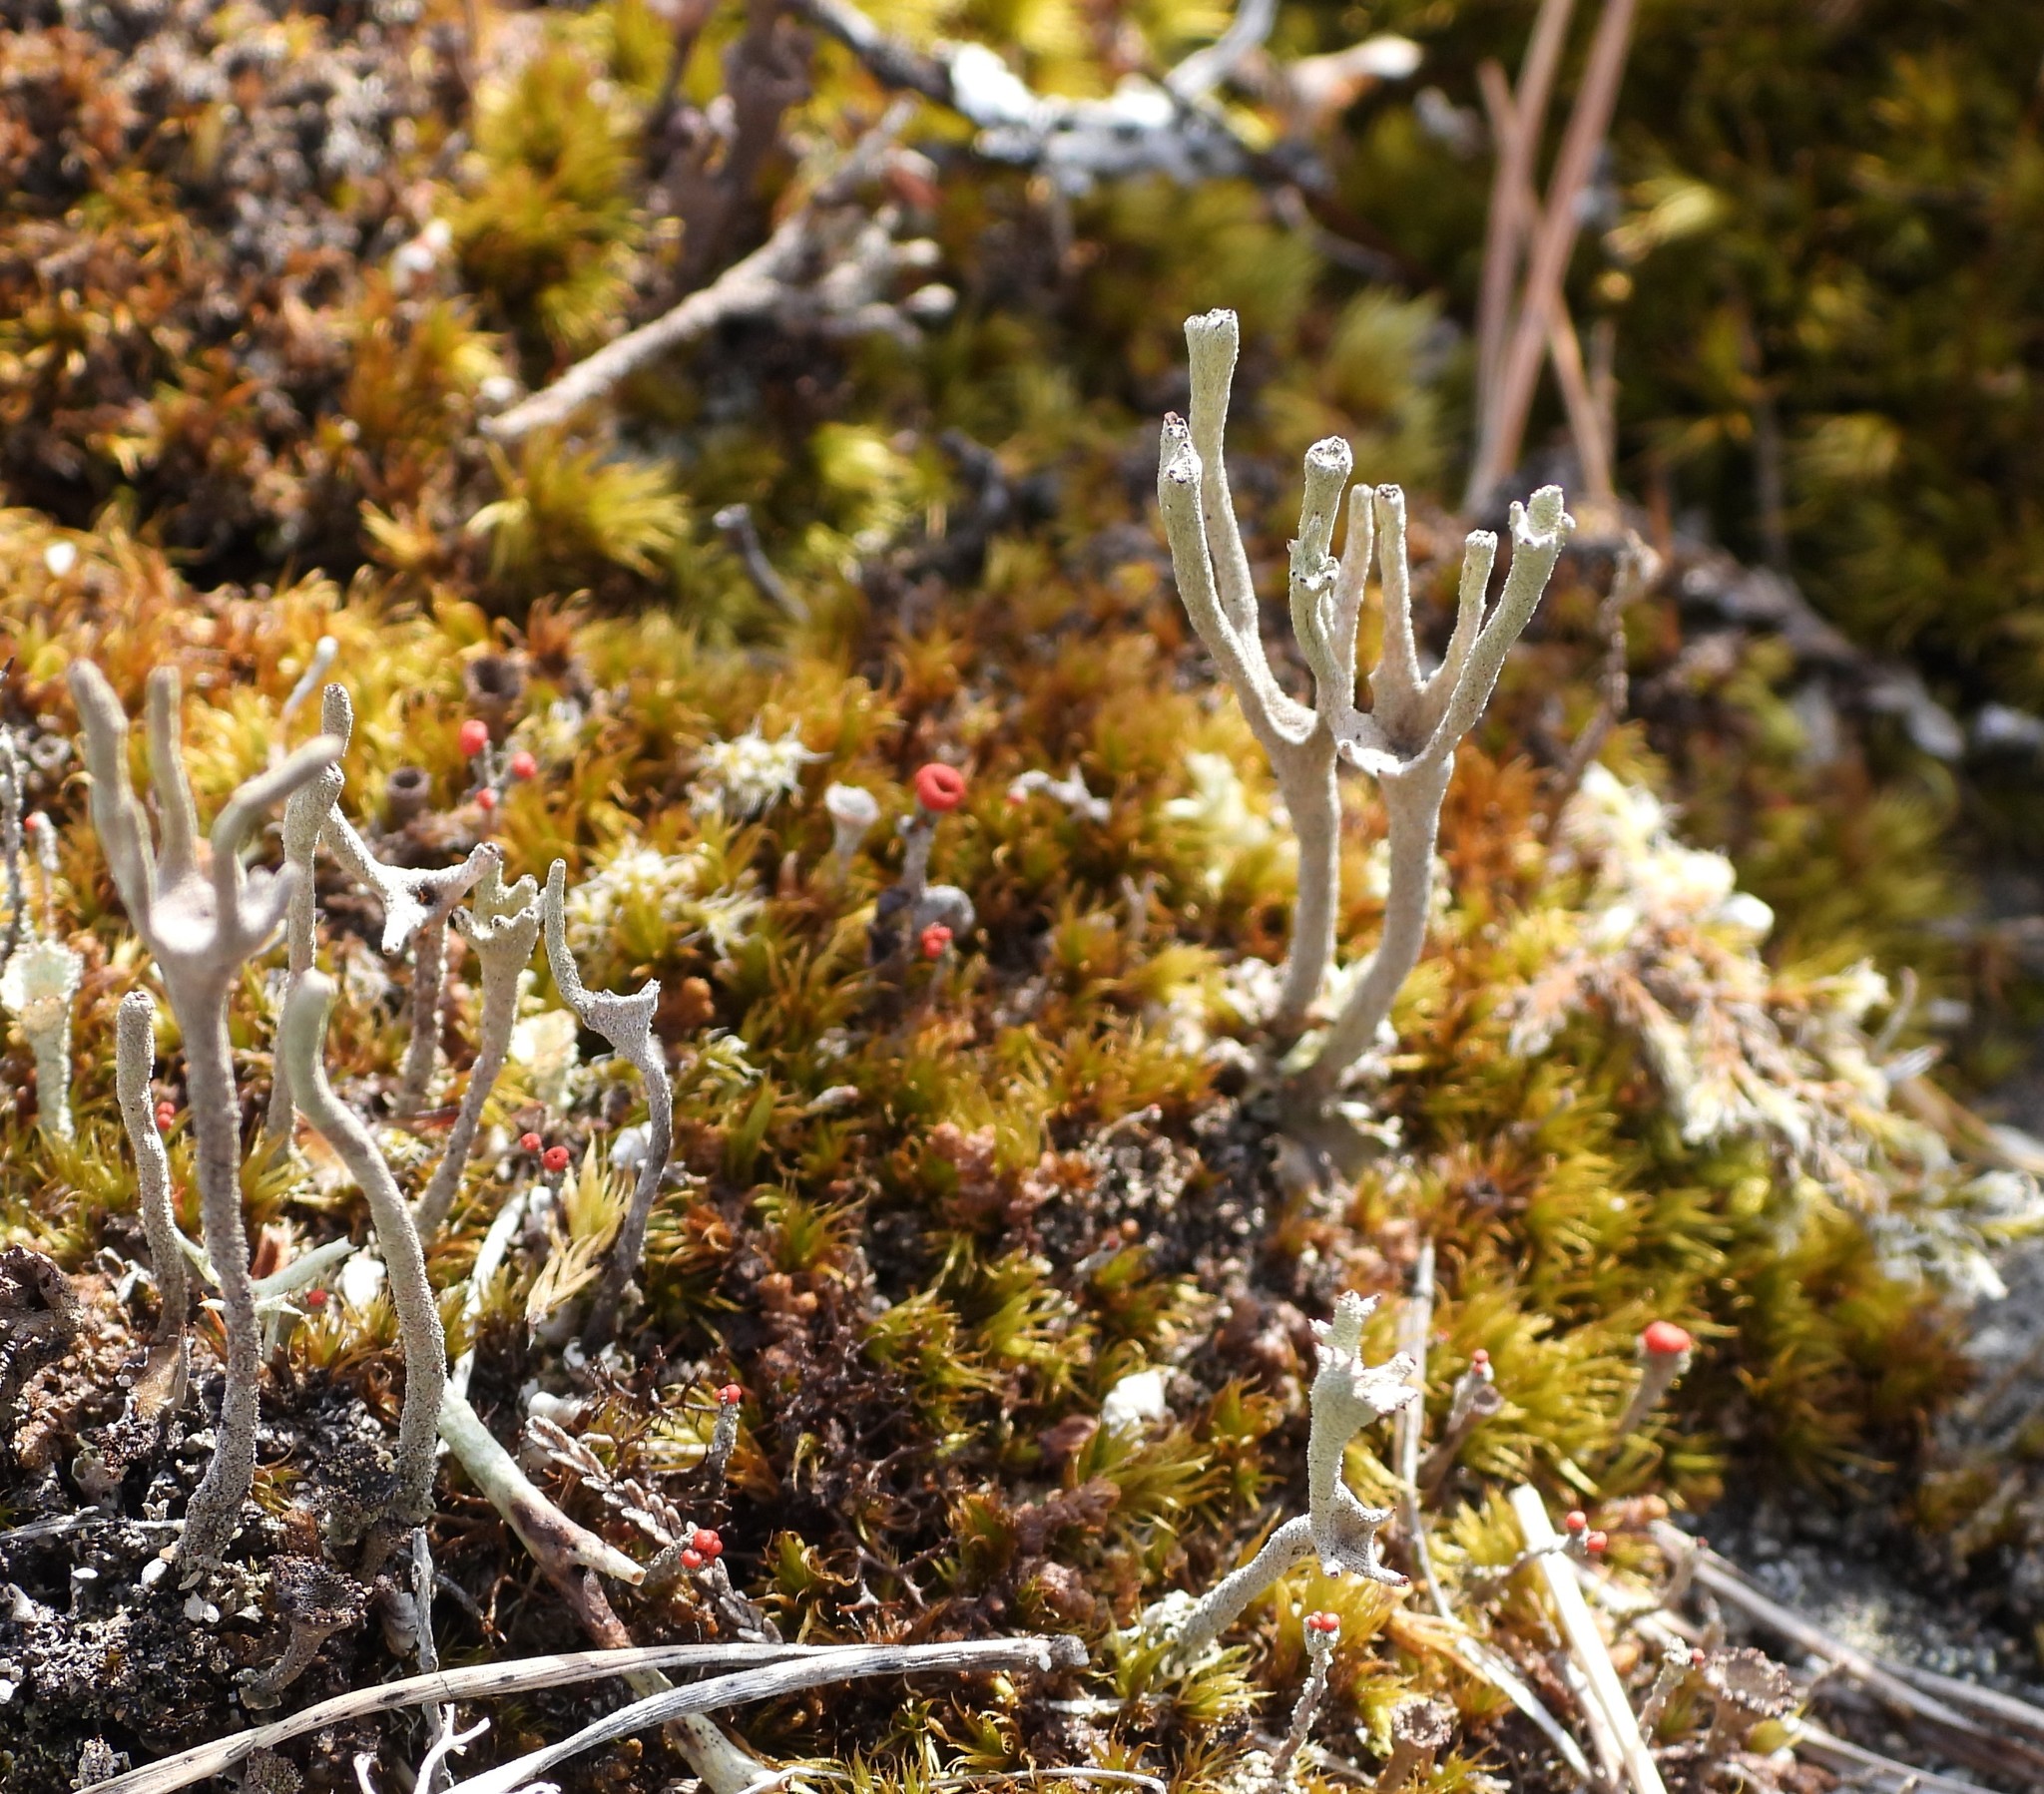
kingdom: Fungi
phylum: Ascomycota
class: Lecanoromycetes
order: Lecanorales
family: Cladoniaceae
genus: Cladonia
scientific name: Cladonia subulata
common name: Antlered powderhorn
